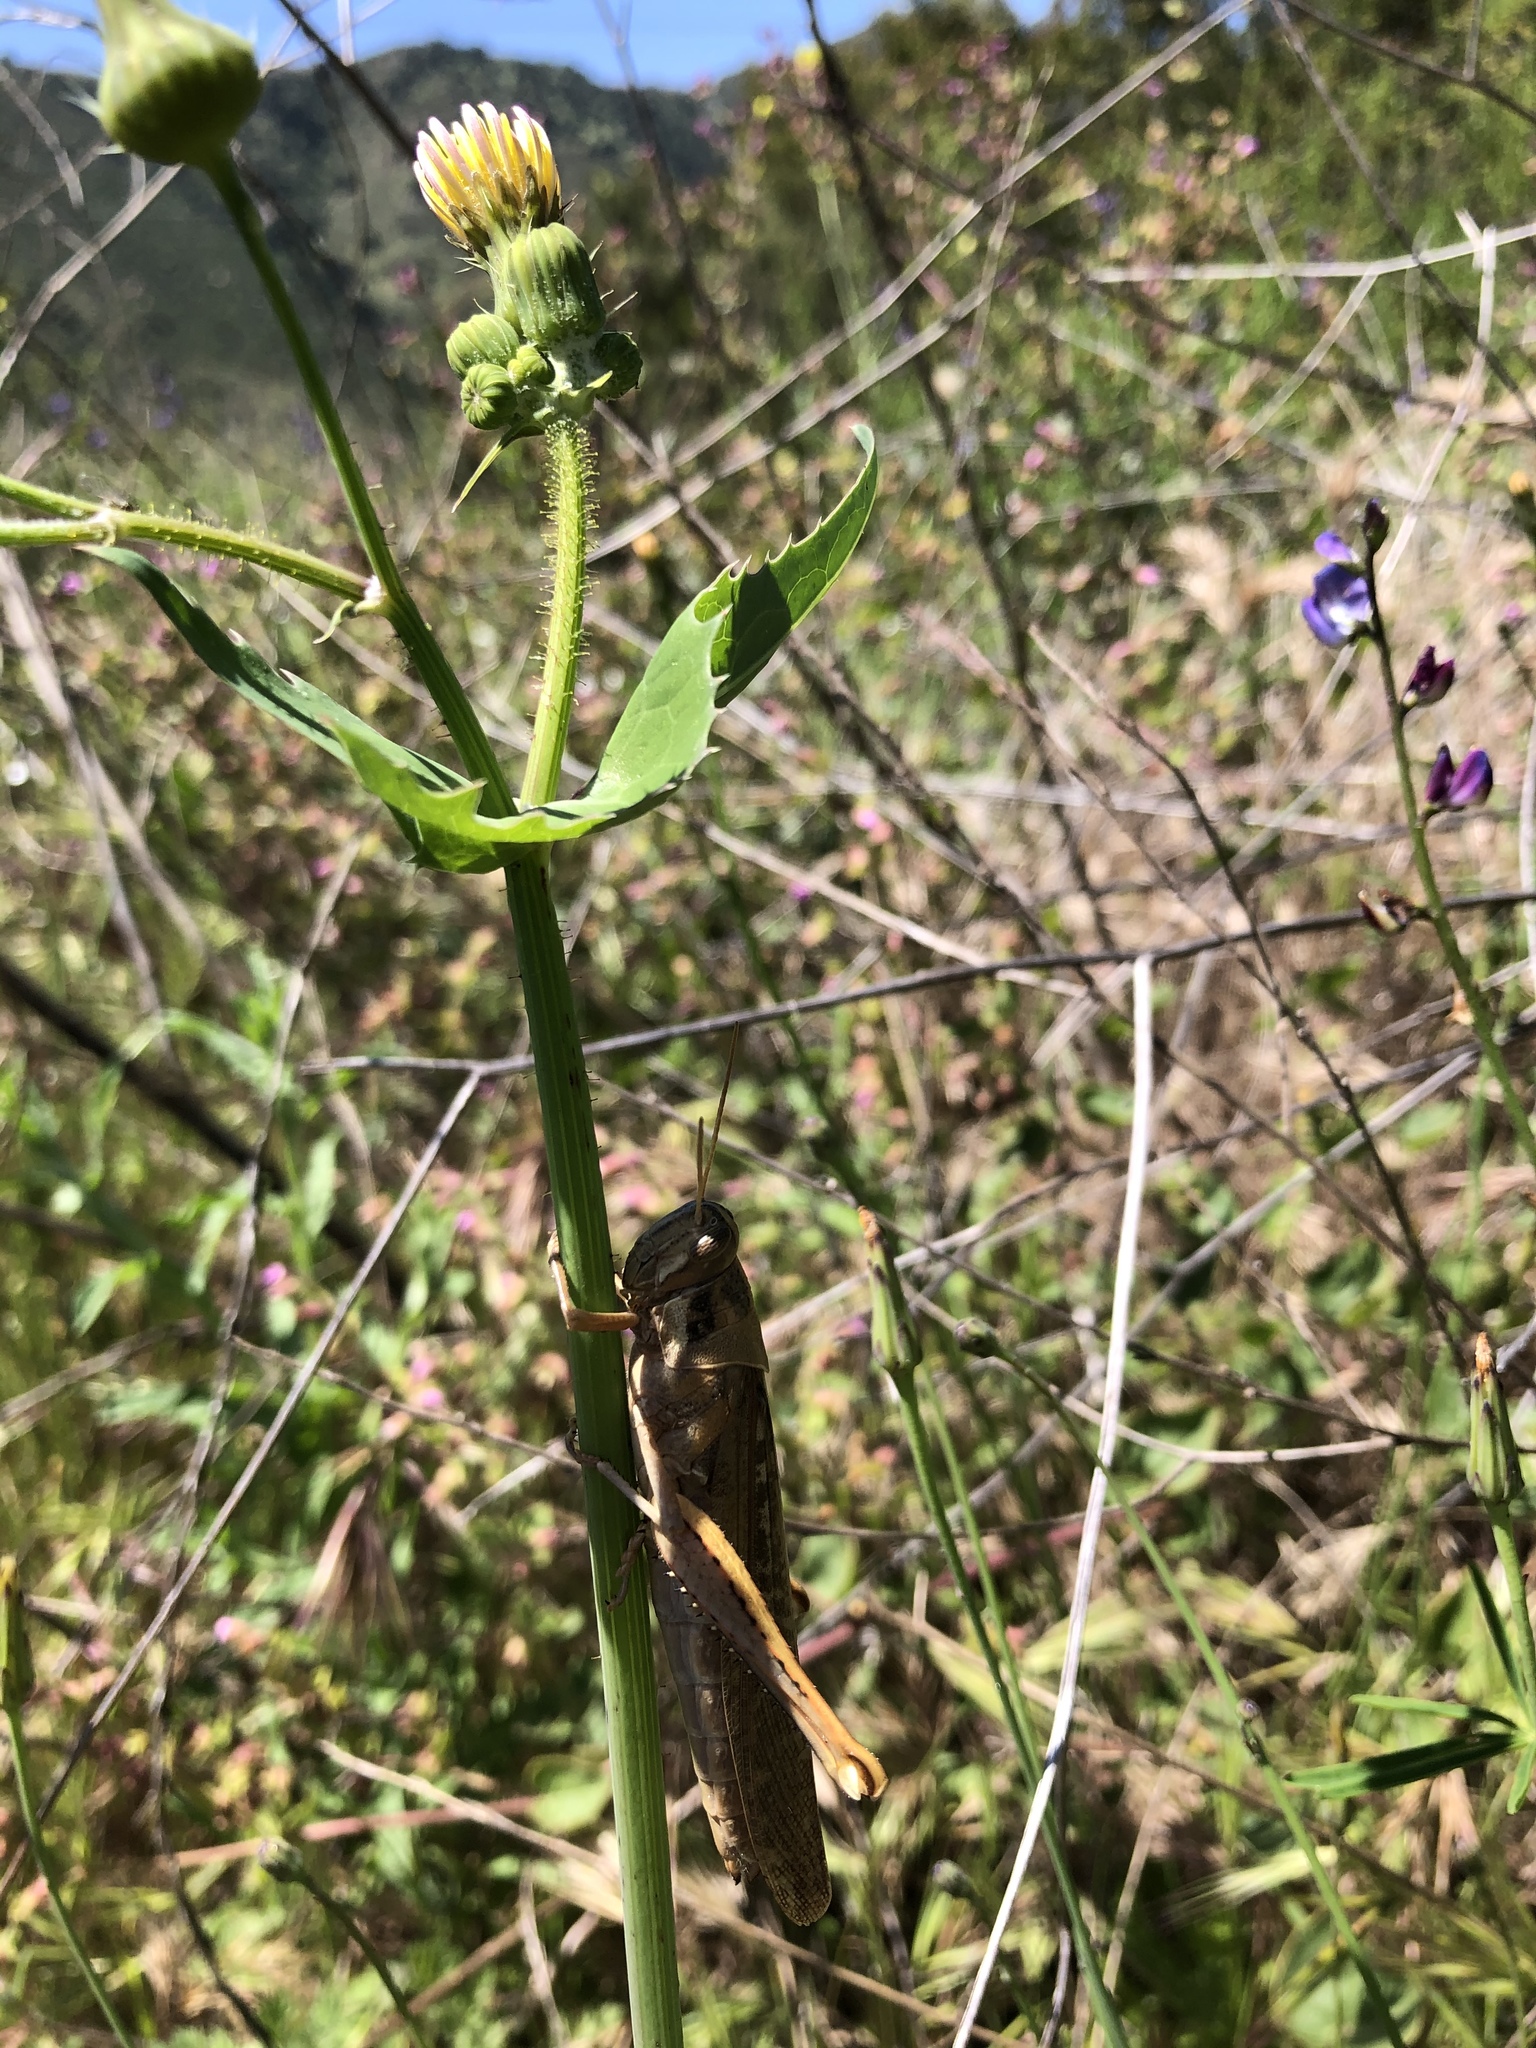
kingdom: Animalia
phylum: Arthropoda
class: Insecta
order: Orthoptera
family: Acrididae
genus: Schistocerca
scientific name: Schistocerca nitens
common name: Vagrant grasshopper
